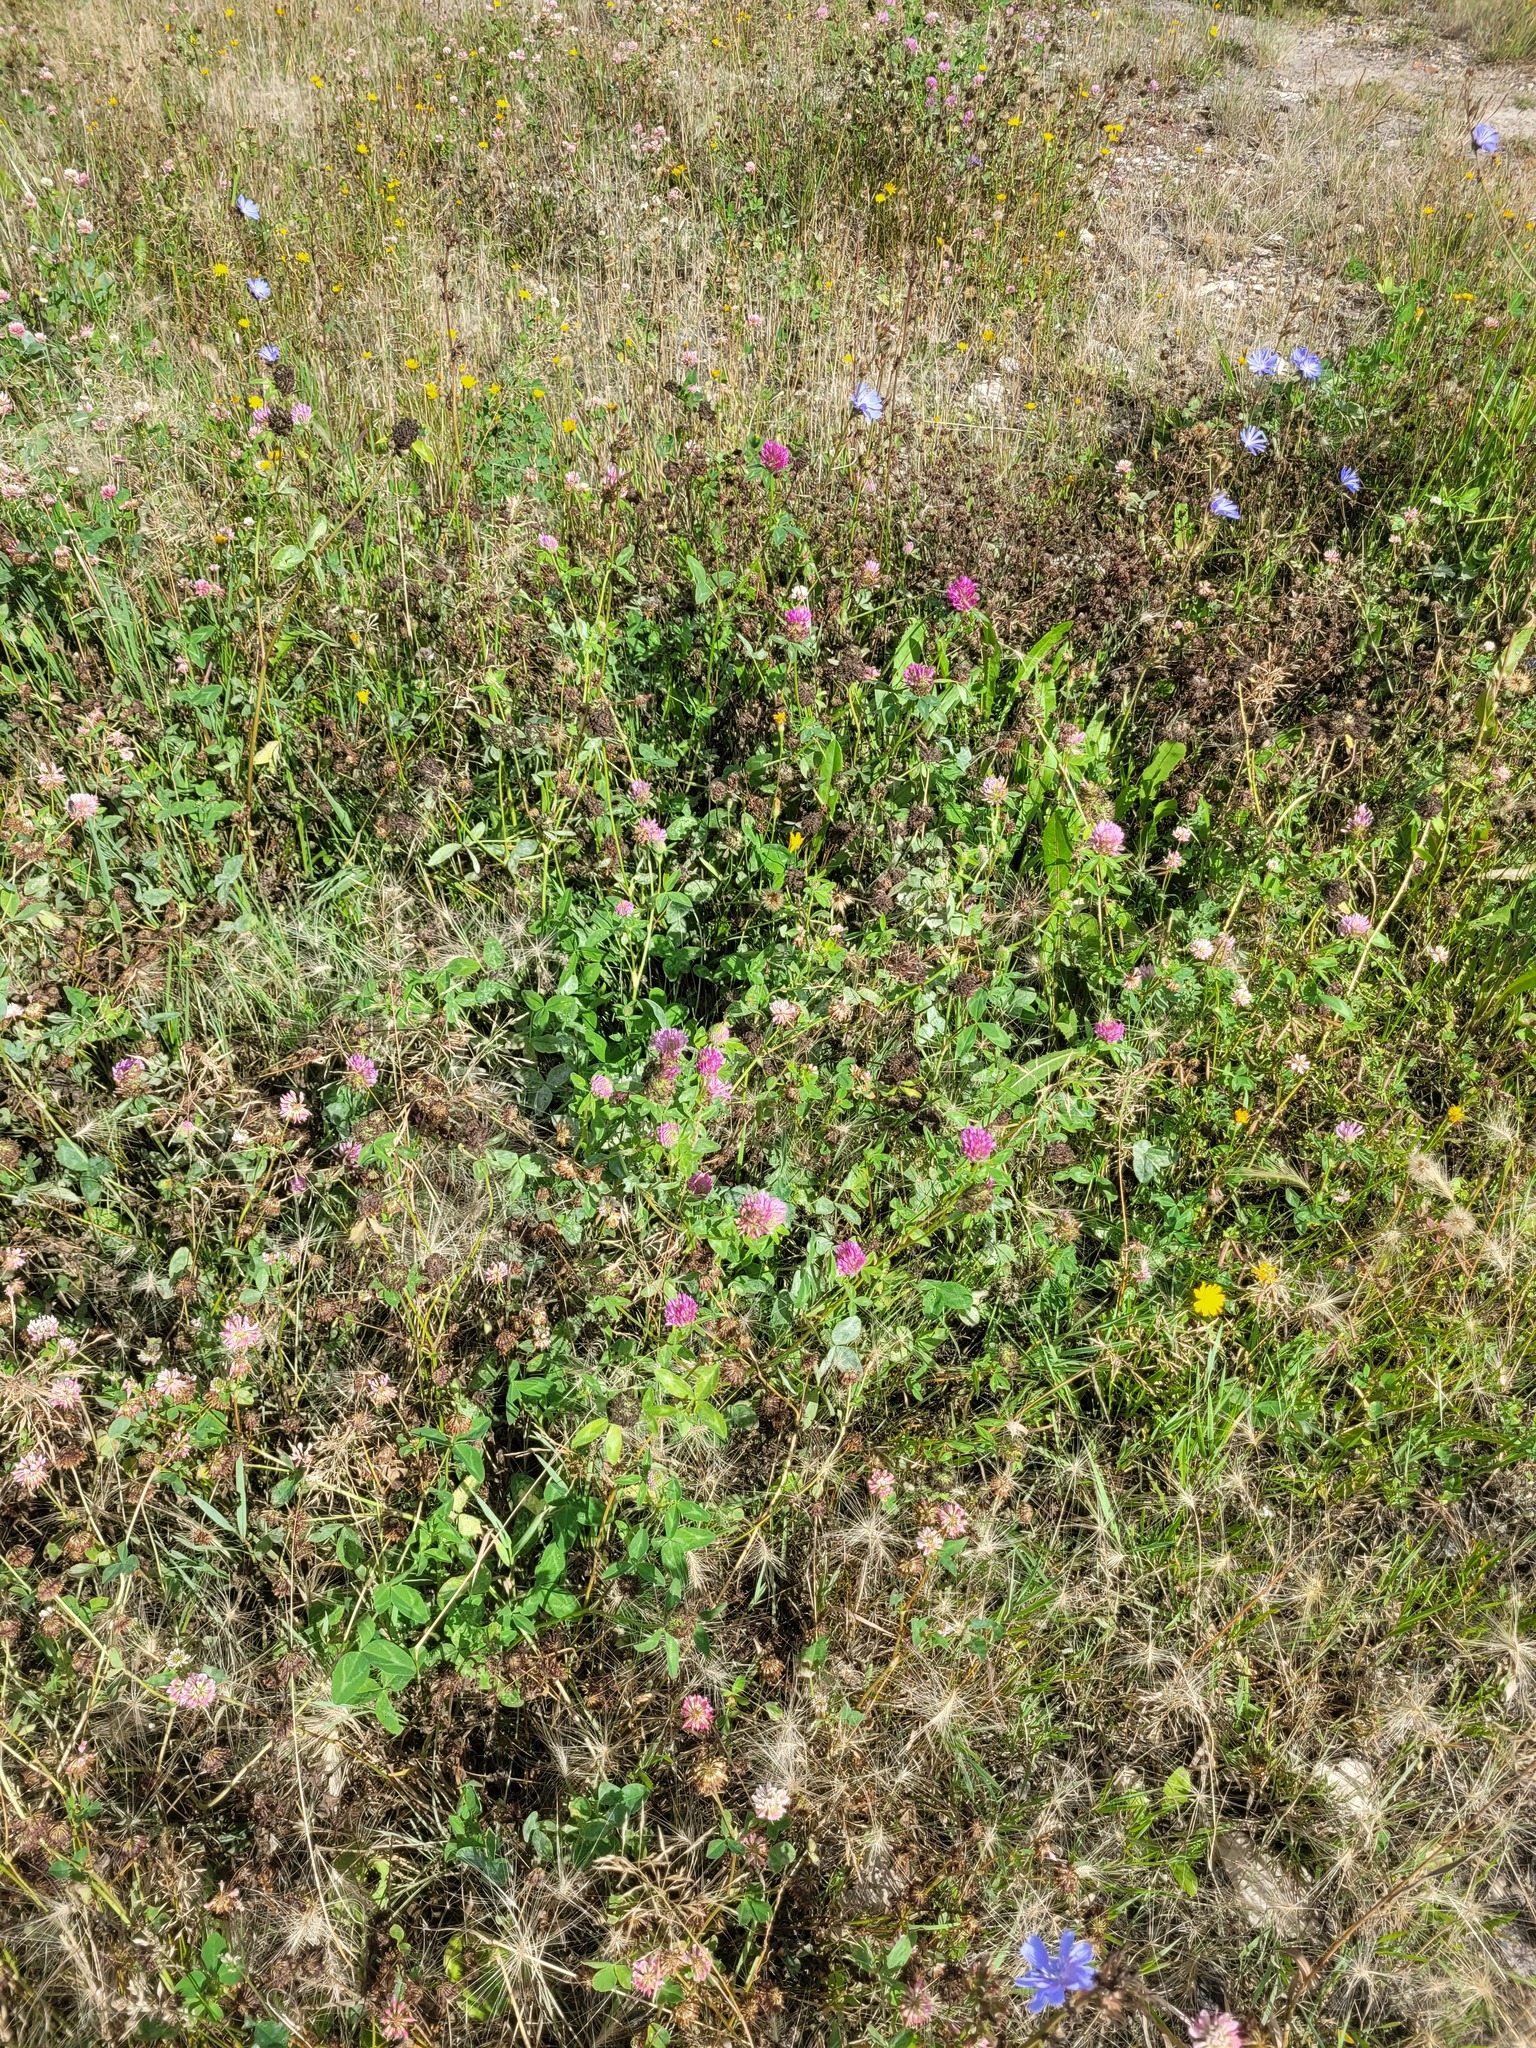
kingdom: Plantae
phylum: Tracheophyta
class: Magnoliopsida
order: Fabales
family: Fabaceae
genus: Trifolium
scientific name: Trifolium pratense
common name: Red clover
